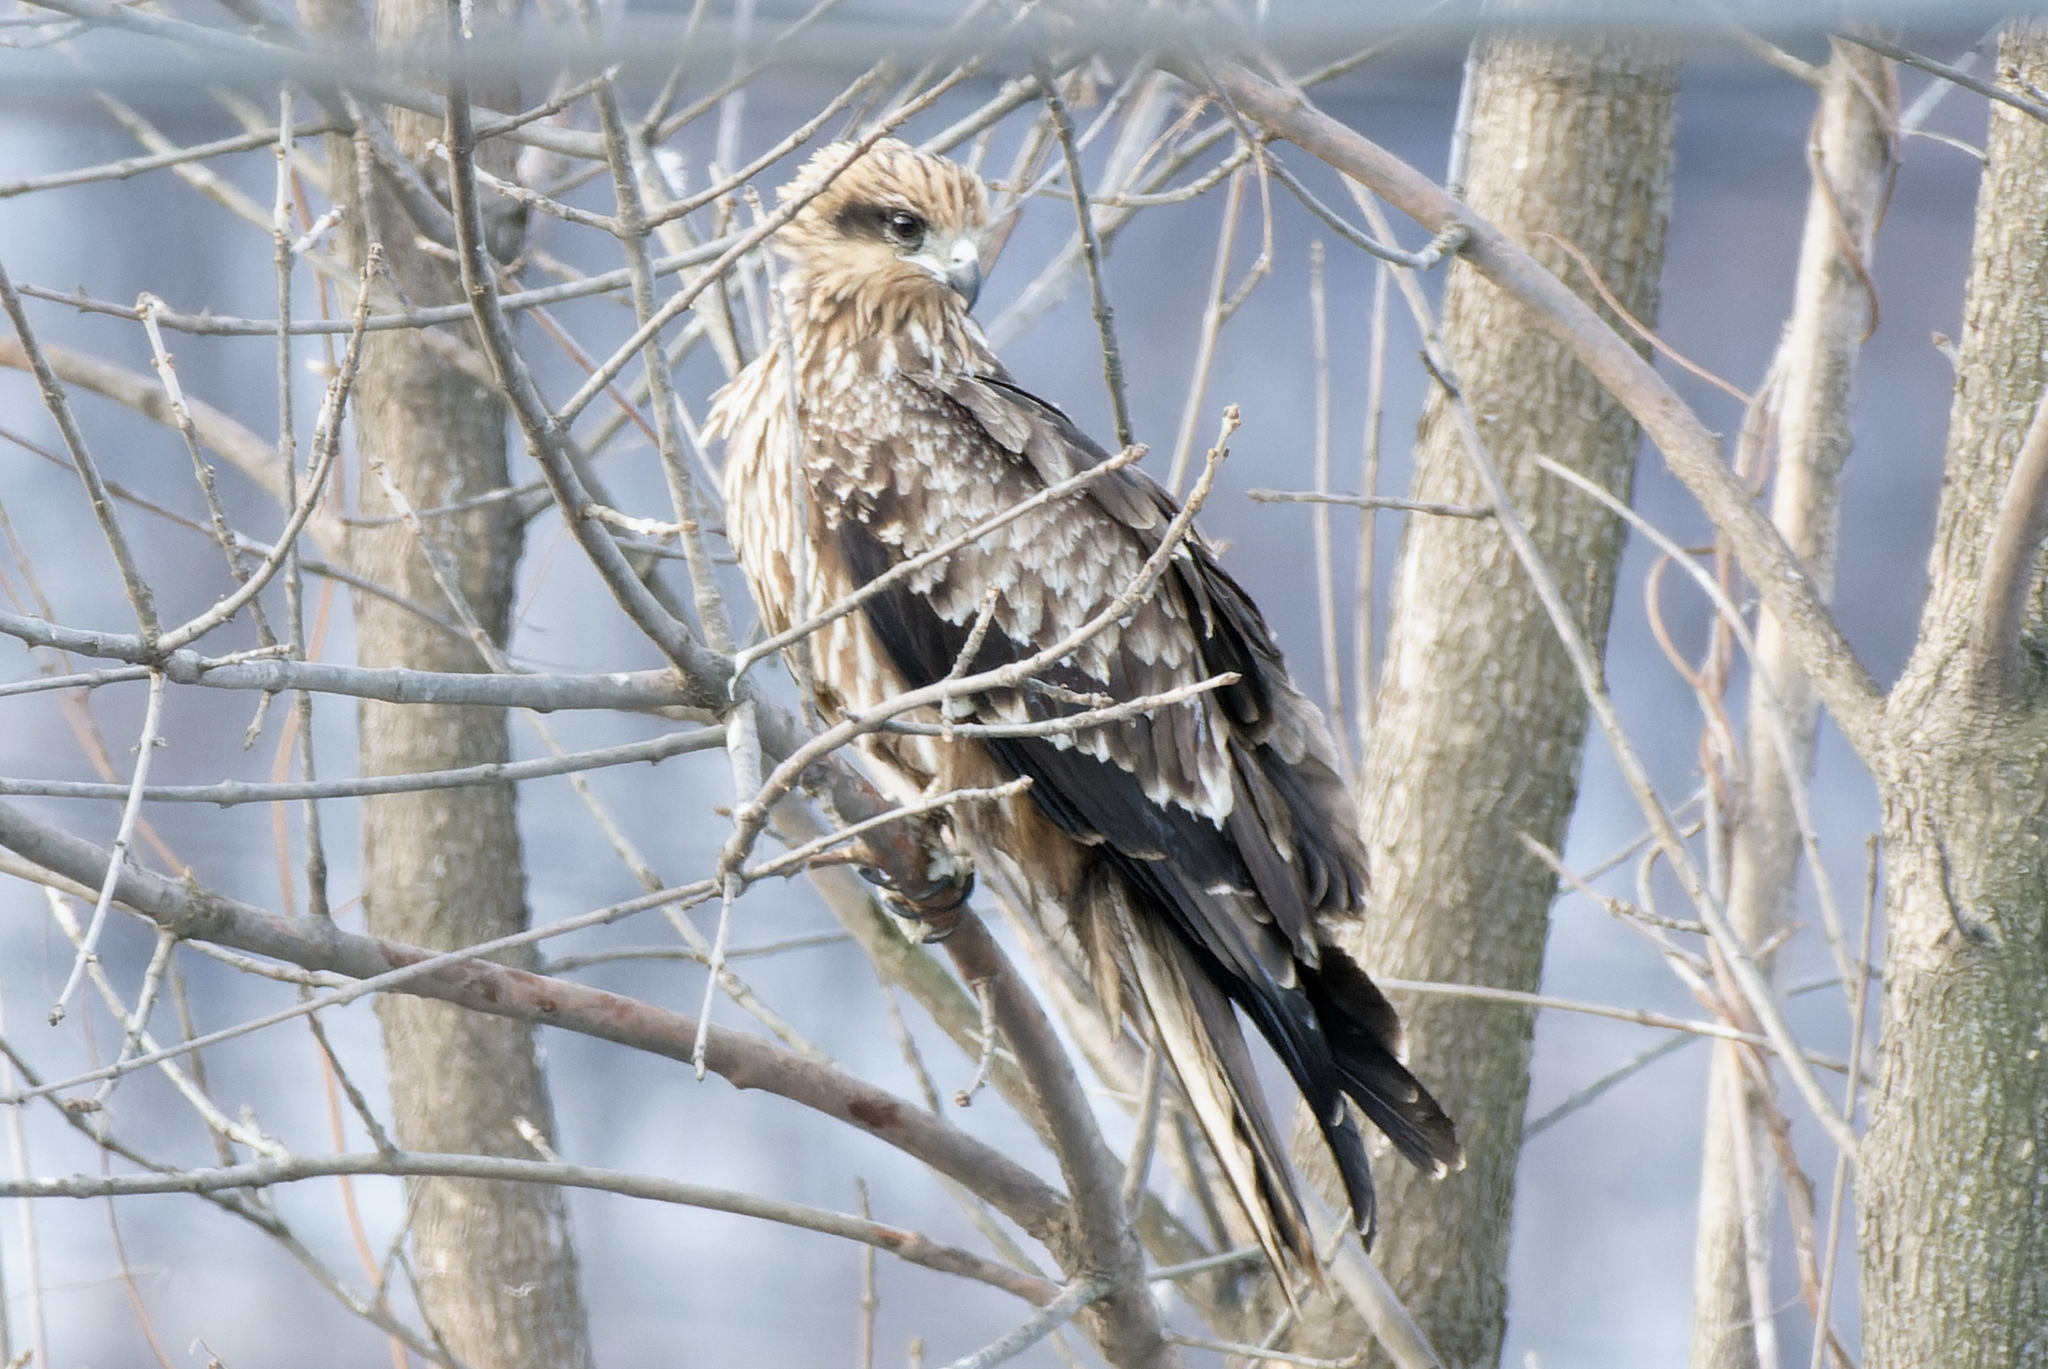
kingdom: Animalia
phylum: Chordata
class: Aves
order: Accipitriformes
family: Accipitridae
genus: Milvus
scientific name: Milvus migrans
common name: Black kite
